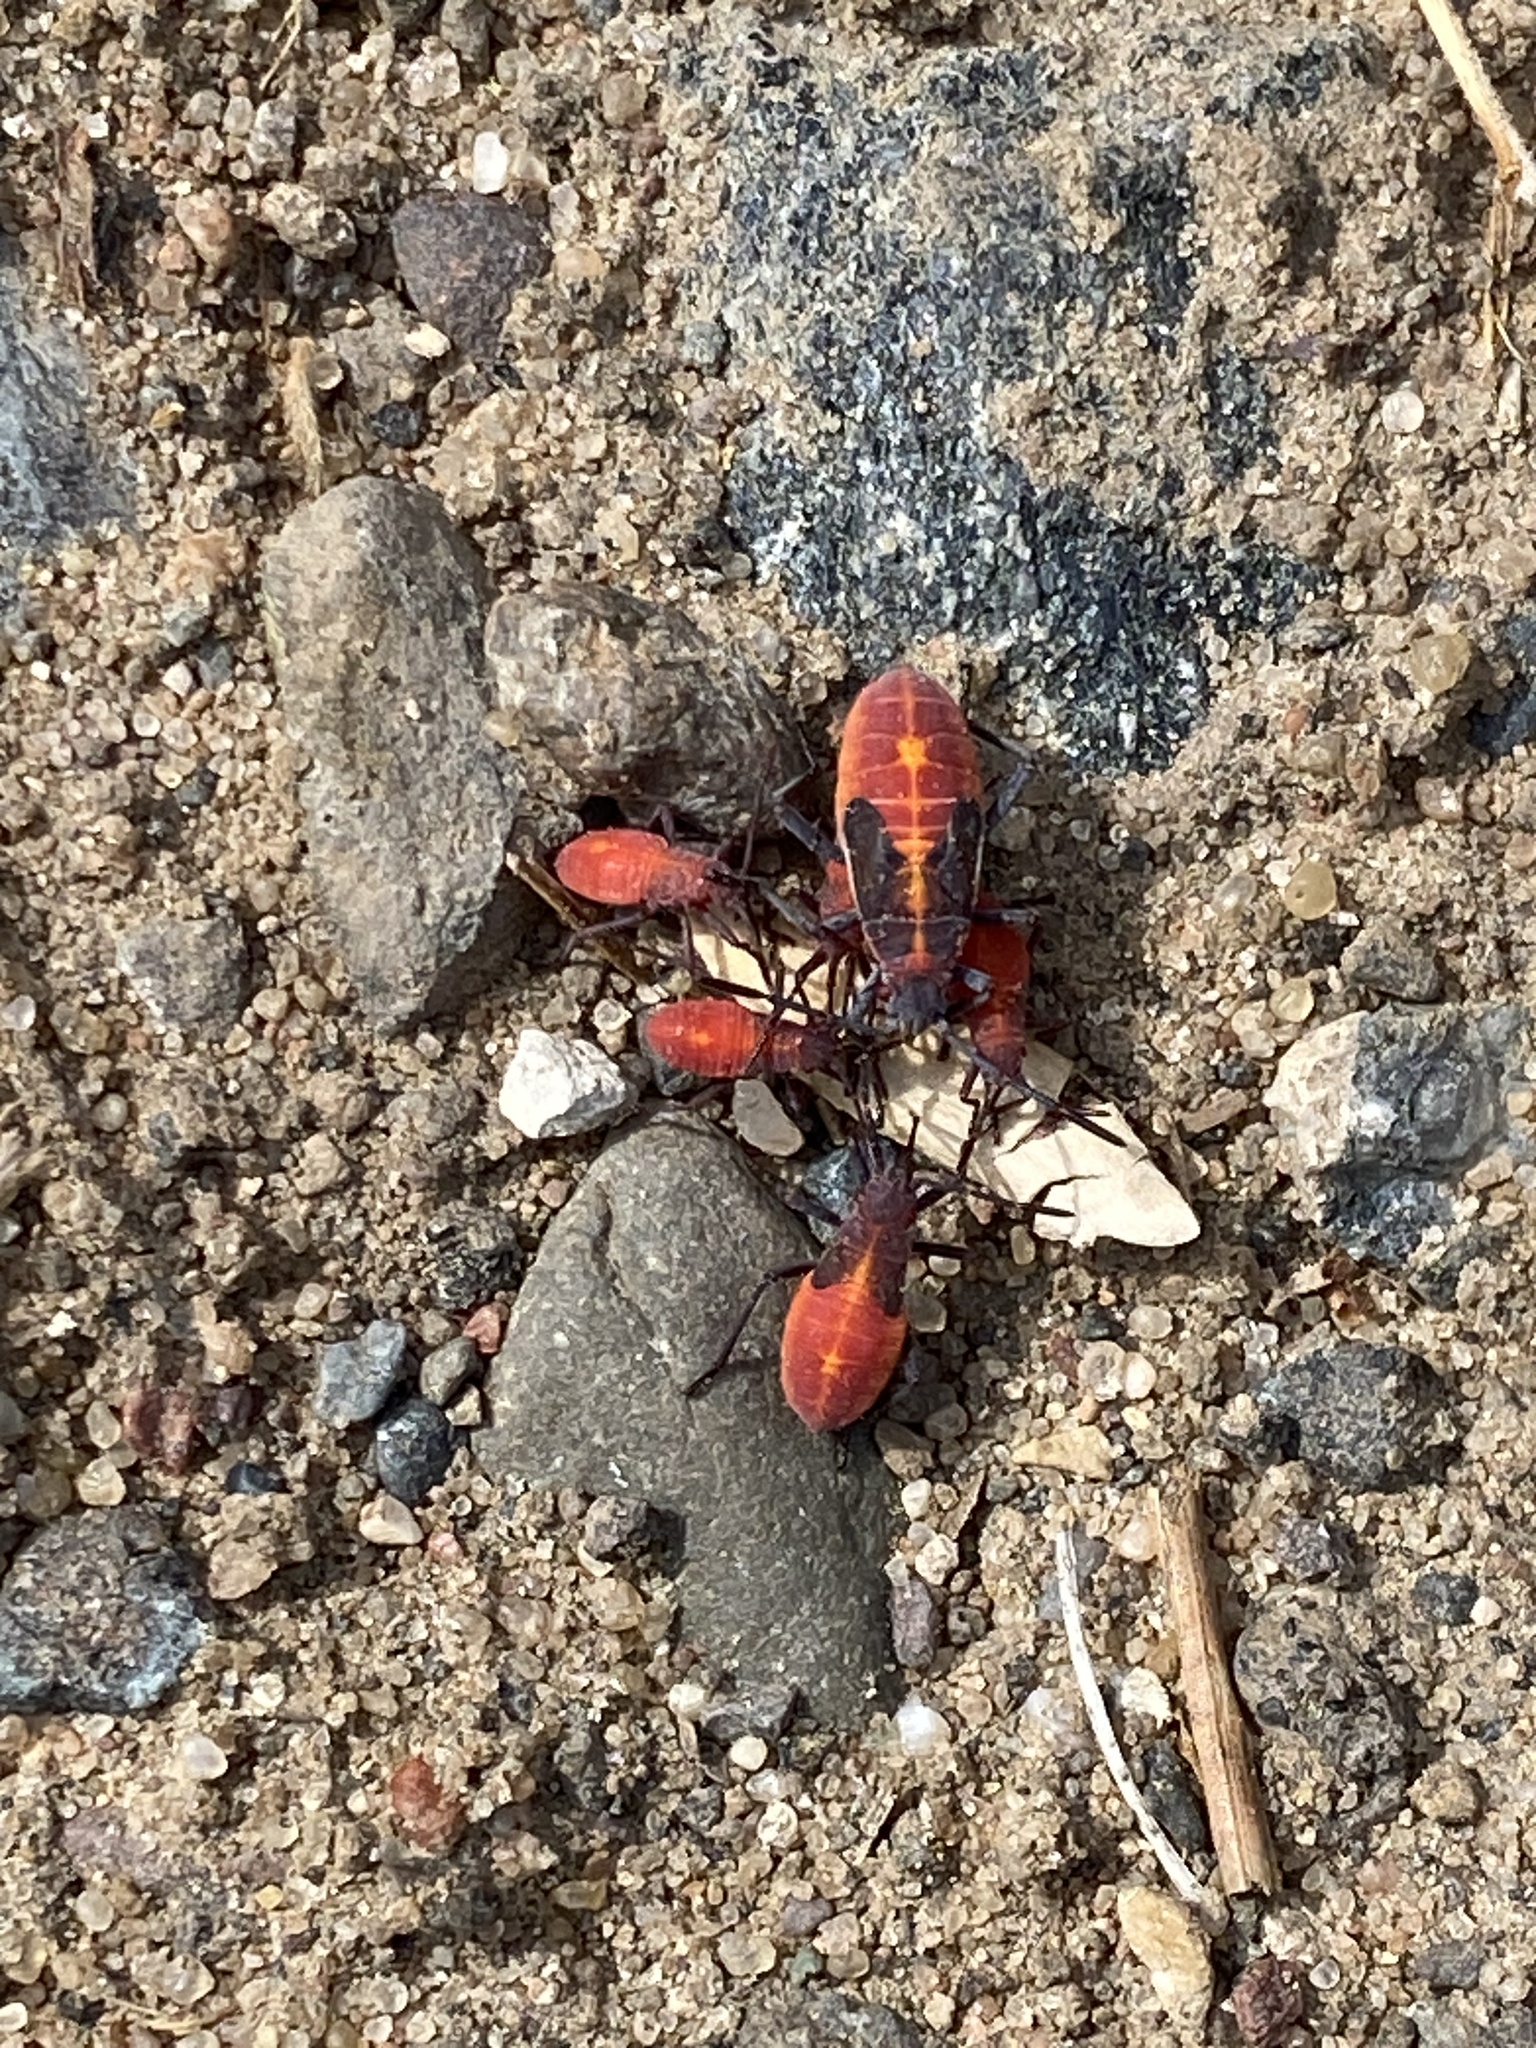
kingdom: Animalia
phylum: Arthropoda
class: Insecta
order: Hemiptera
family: Rhopalidae
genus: Boisea
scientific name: Boisea trivittata
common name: Boxelder bug
